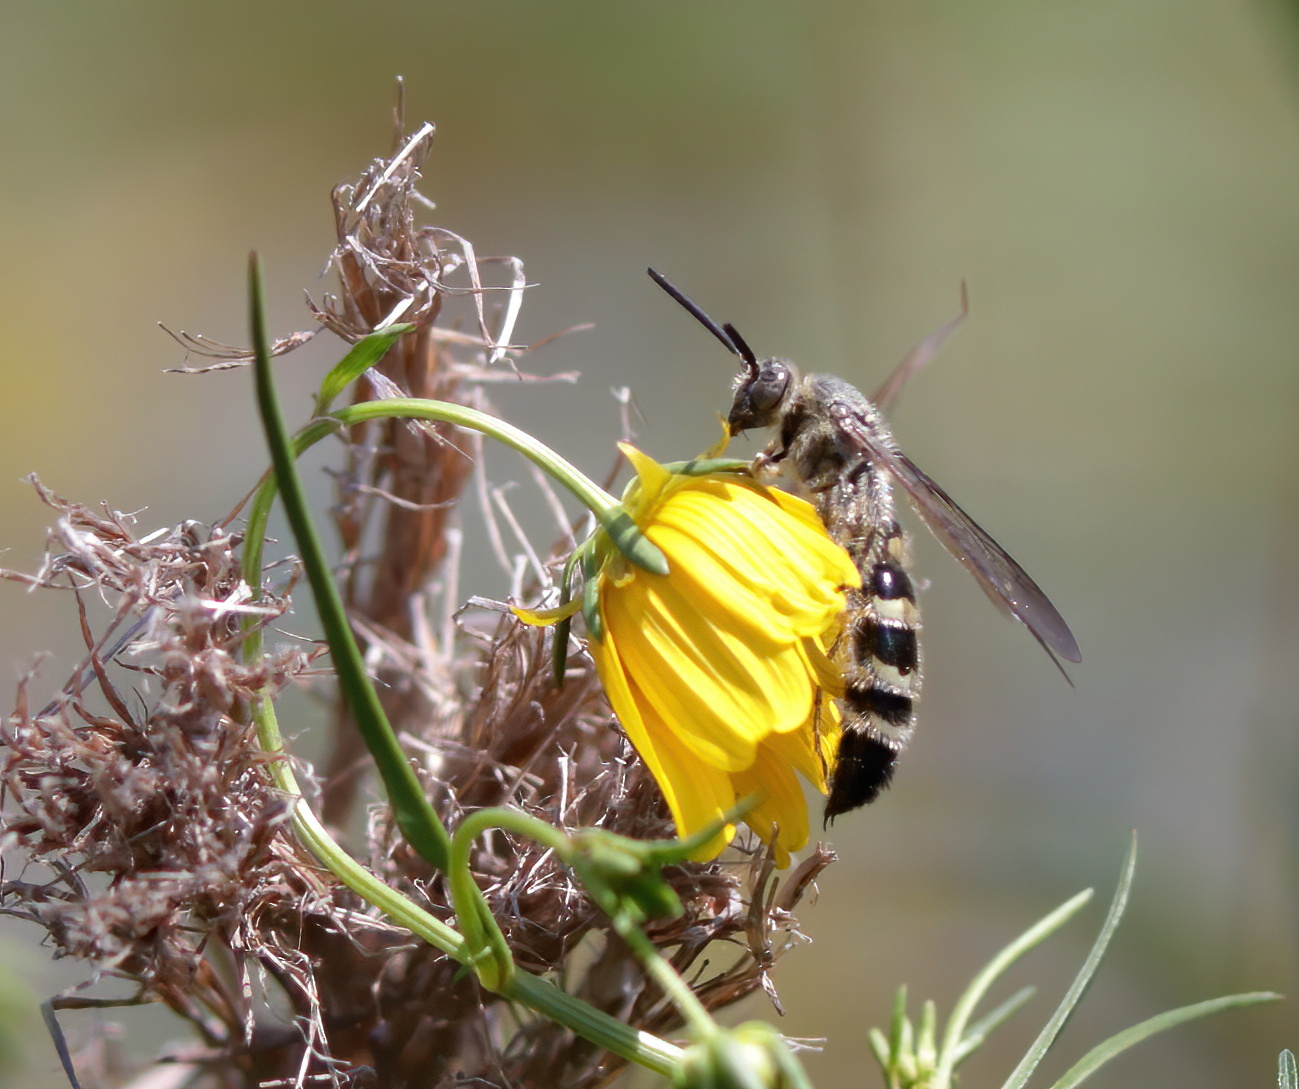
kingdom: Animalia
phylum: Arthropoda
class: Insecta
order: Hymenoptera
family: Scoliidae
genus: Dielis
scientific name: Dielis
